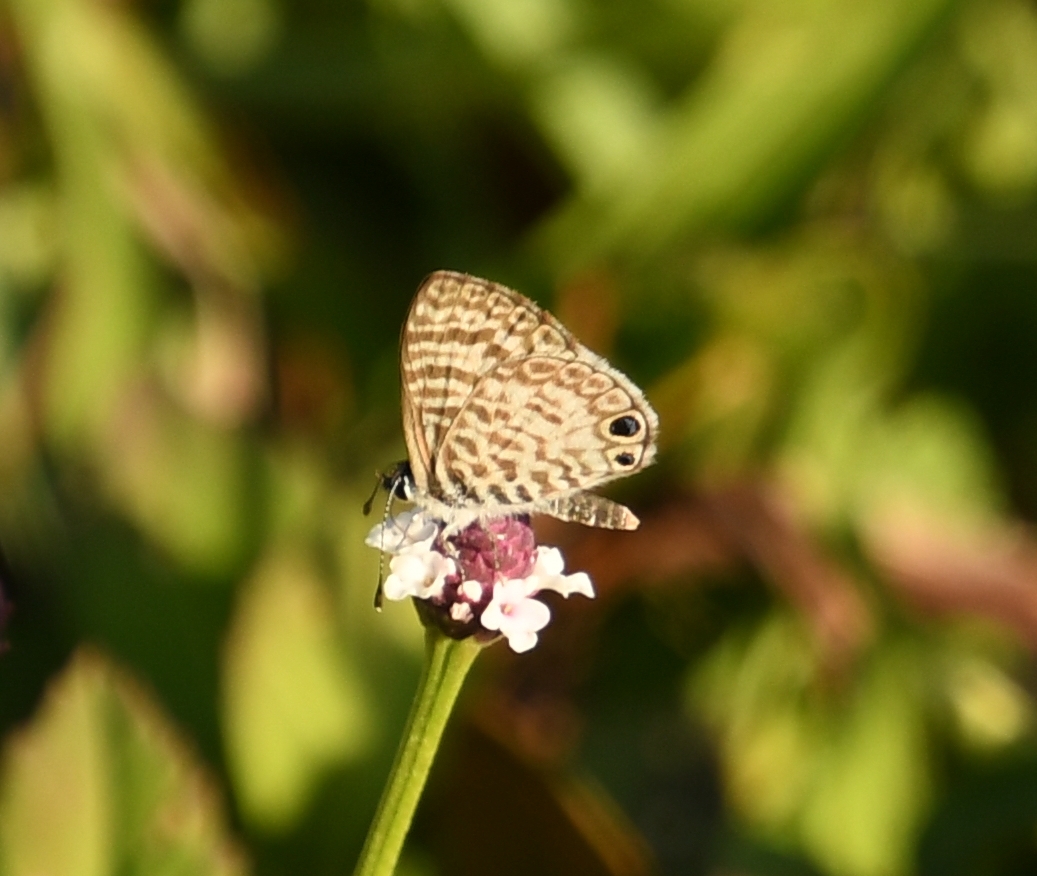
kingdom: Animalia
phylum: Arthropoda
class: Insecta
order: Lepidoptera
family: Lycaenidae
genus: Leptotes
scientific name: Leptotes cassius
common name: Cassius blue
